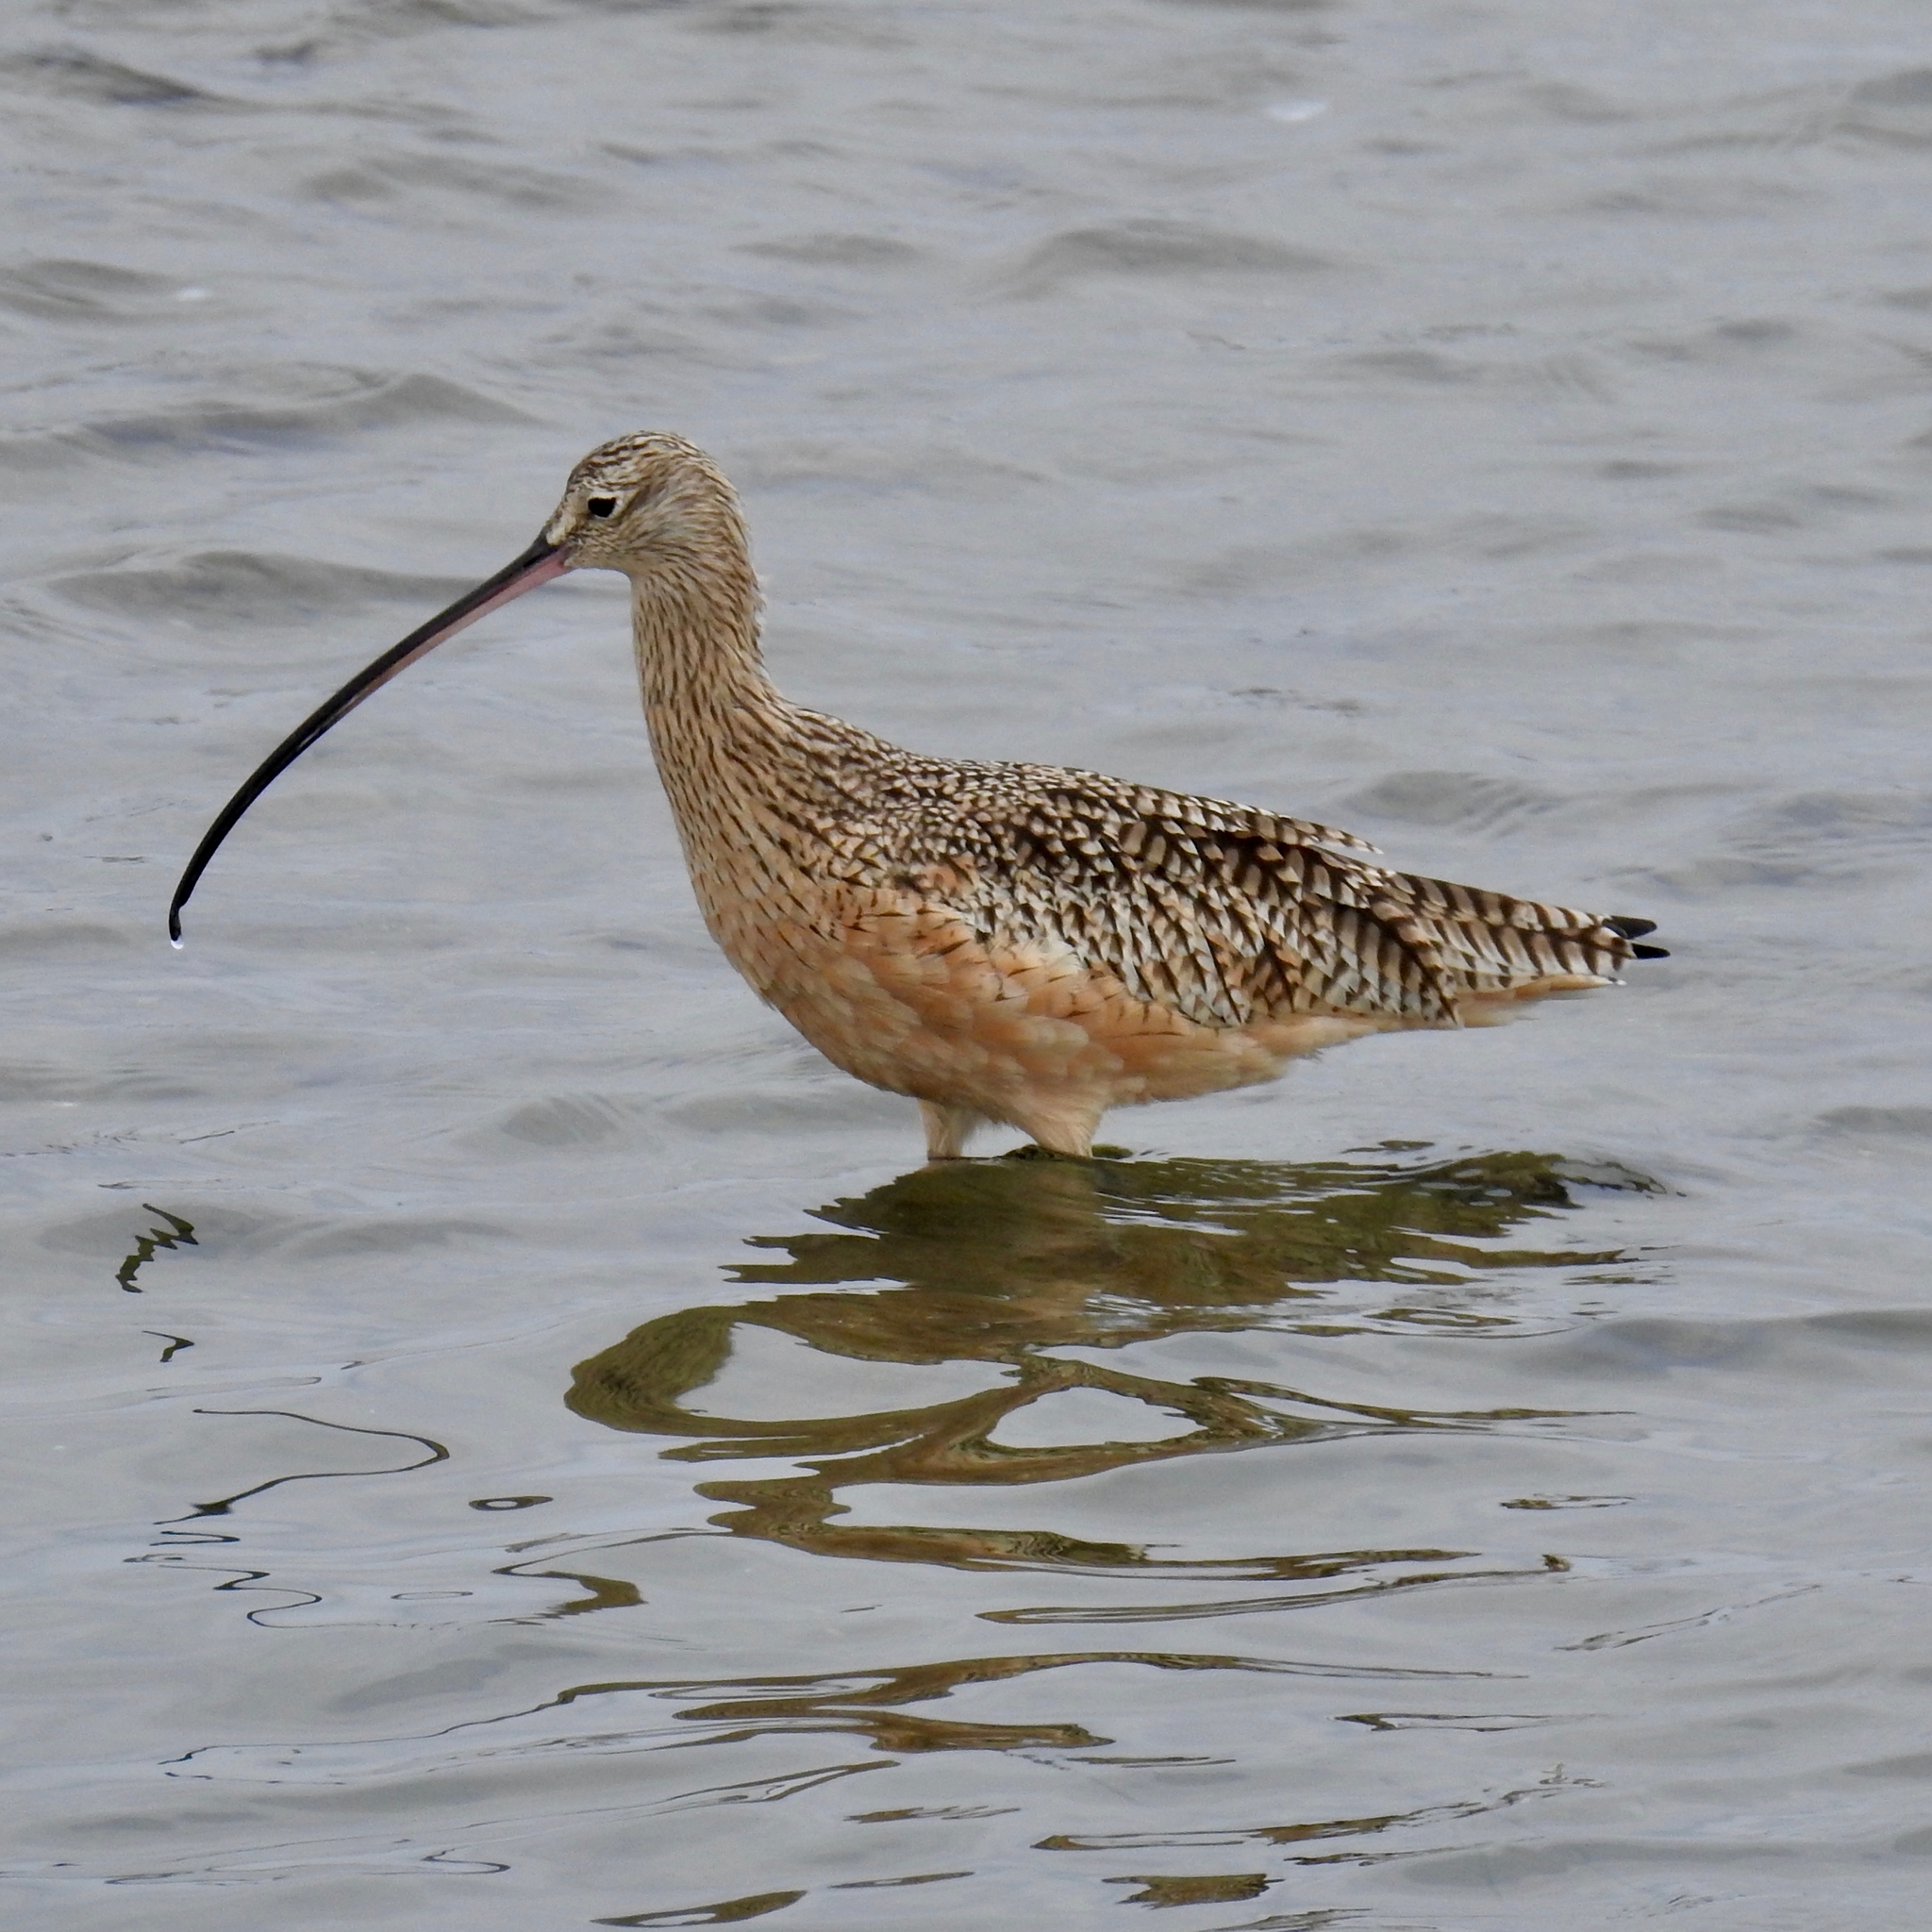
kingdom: Animalia
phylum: Chordata
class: Aves
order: Charadriiformes
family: Scolopacidae
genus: Numenius
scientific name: Numenius americanus
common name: Long-billed curlew
